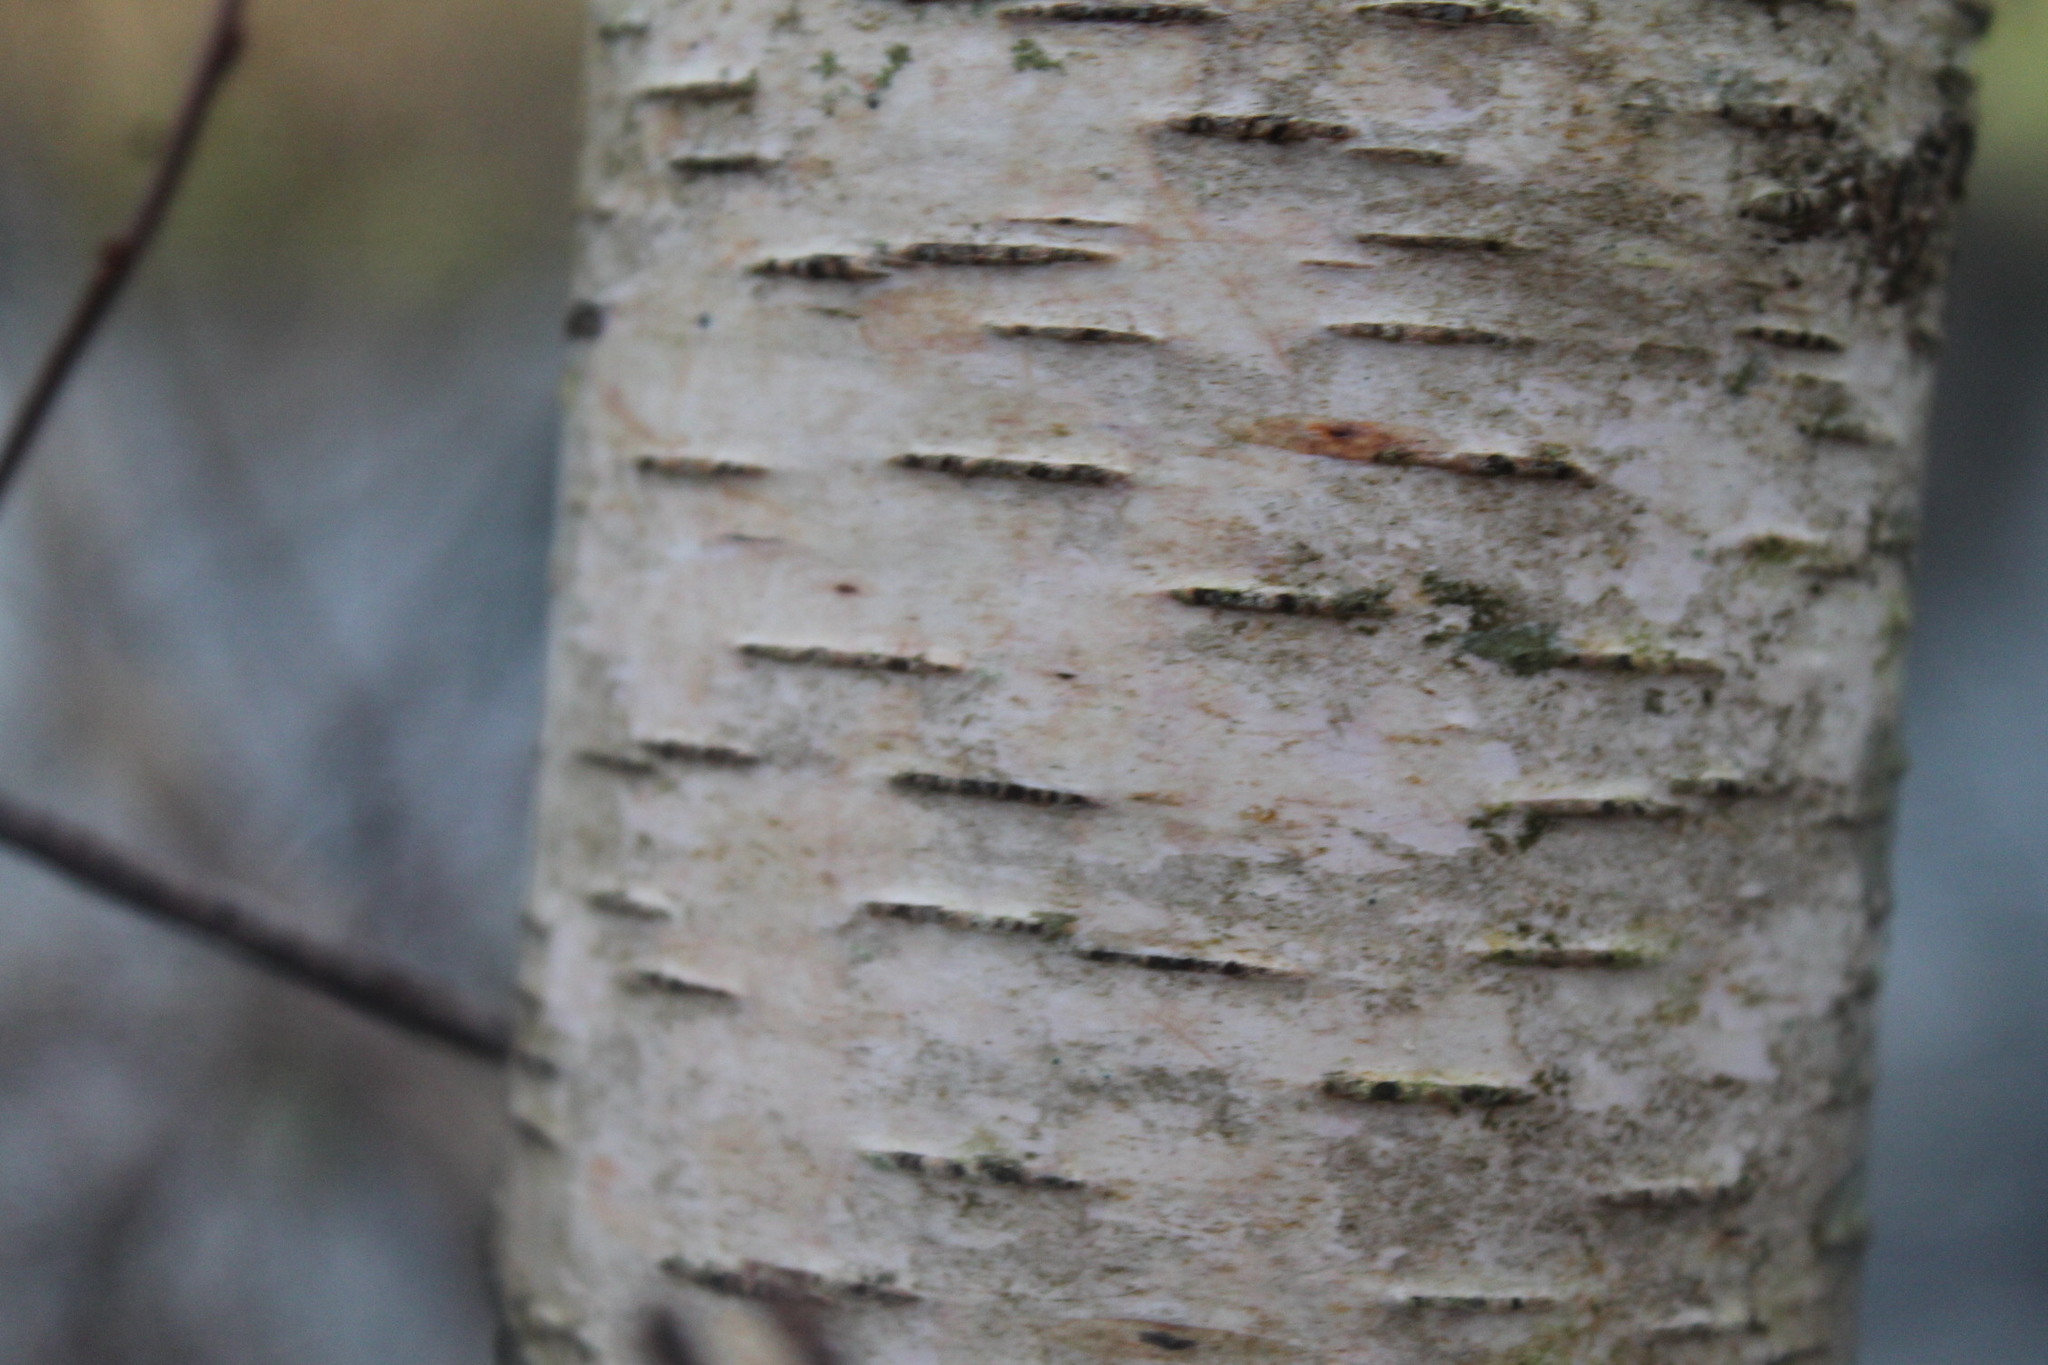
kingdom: Plantae
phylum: Tracheophyta
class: Magnoliopsida
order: Fagales
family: Betulaceae
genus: Betula
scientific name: Betula populifolia
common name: Fire birch
